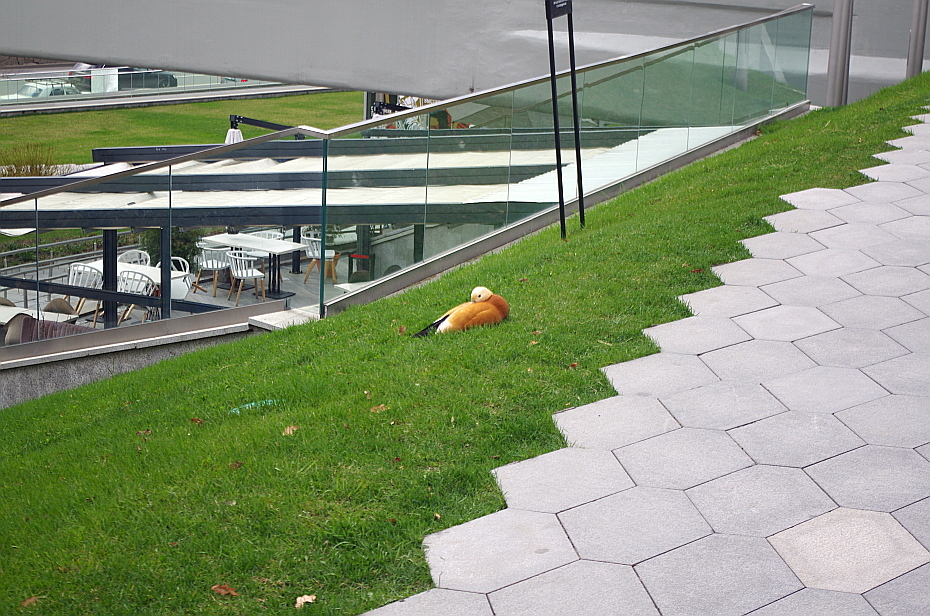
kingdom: Animalia
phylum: Chordata
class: Aves
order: Anseriformes
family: Anatidae
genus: Tadorna
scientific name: Tadorna ferruginea
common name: Ruddy shelduck
